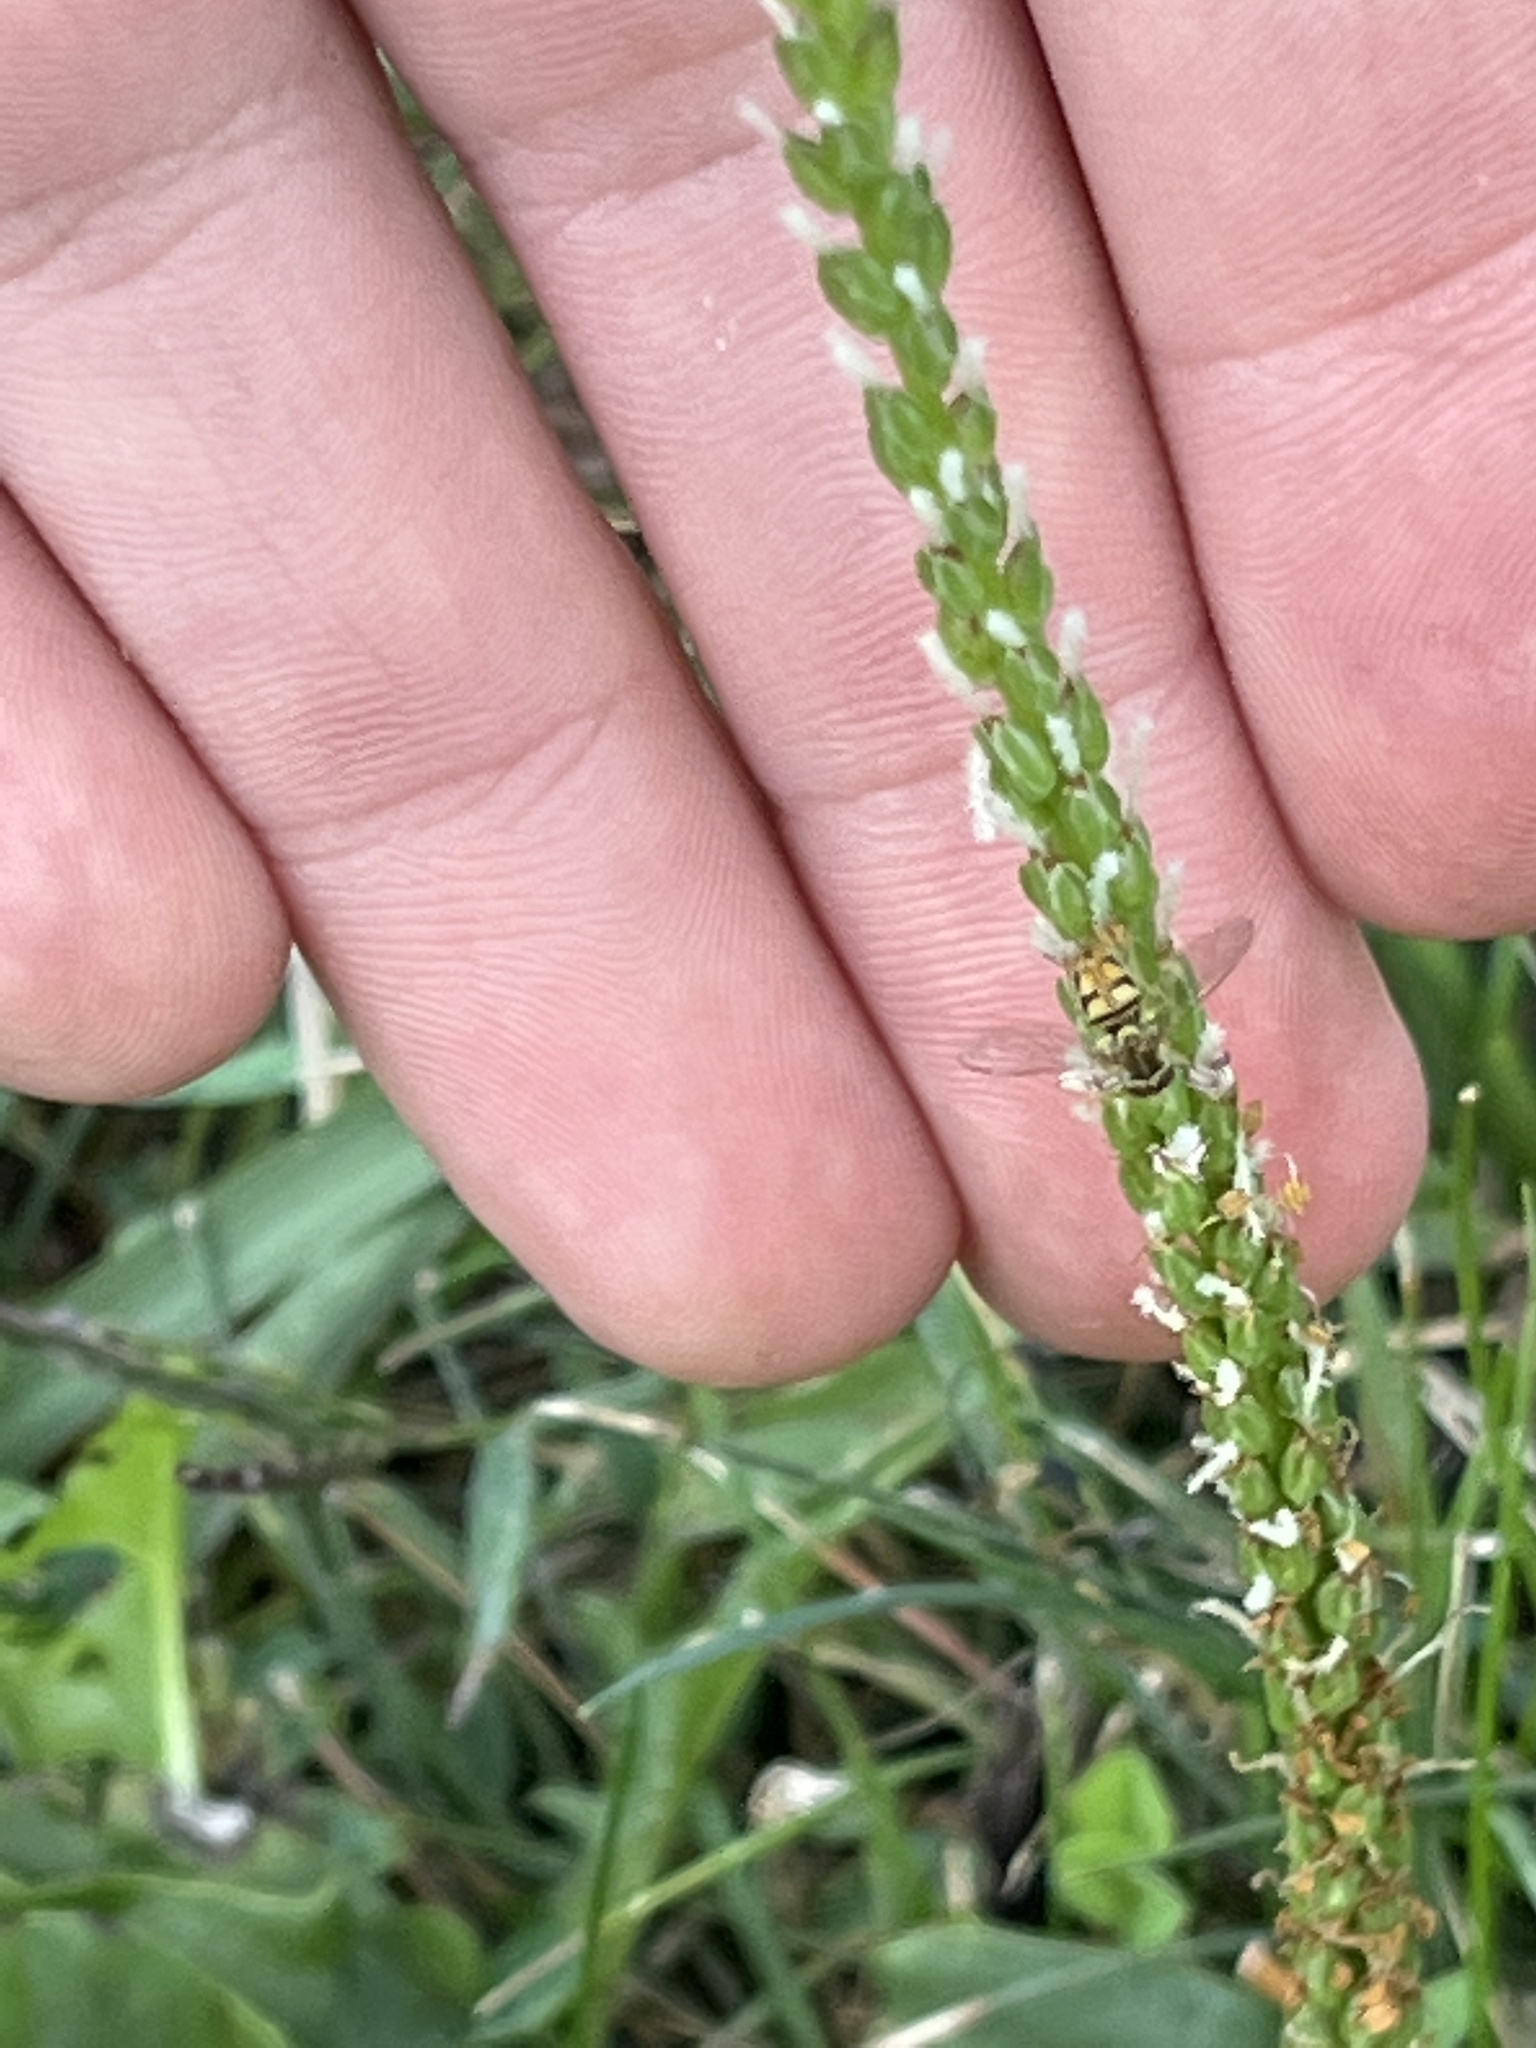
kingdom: Animalia
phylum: Arthropoda
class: Insecta
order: Diptera
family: Syrphidae
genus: Toxomerus
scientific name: Toxomerus marginatus
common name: Syrphid fly
